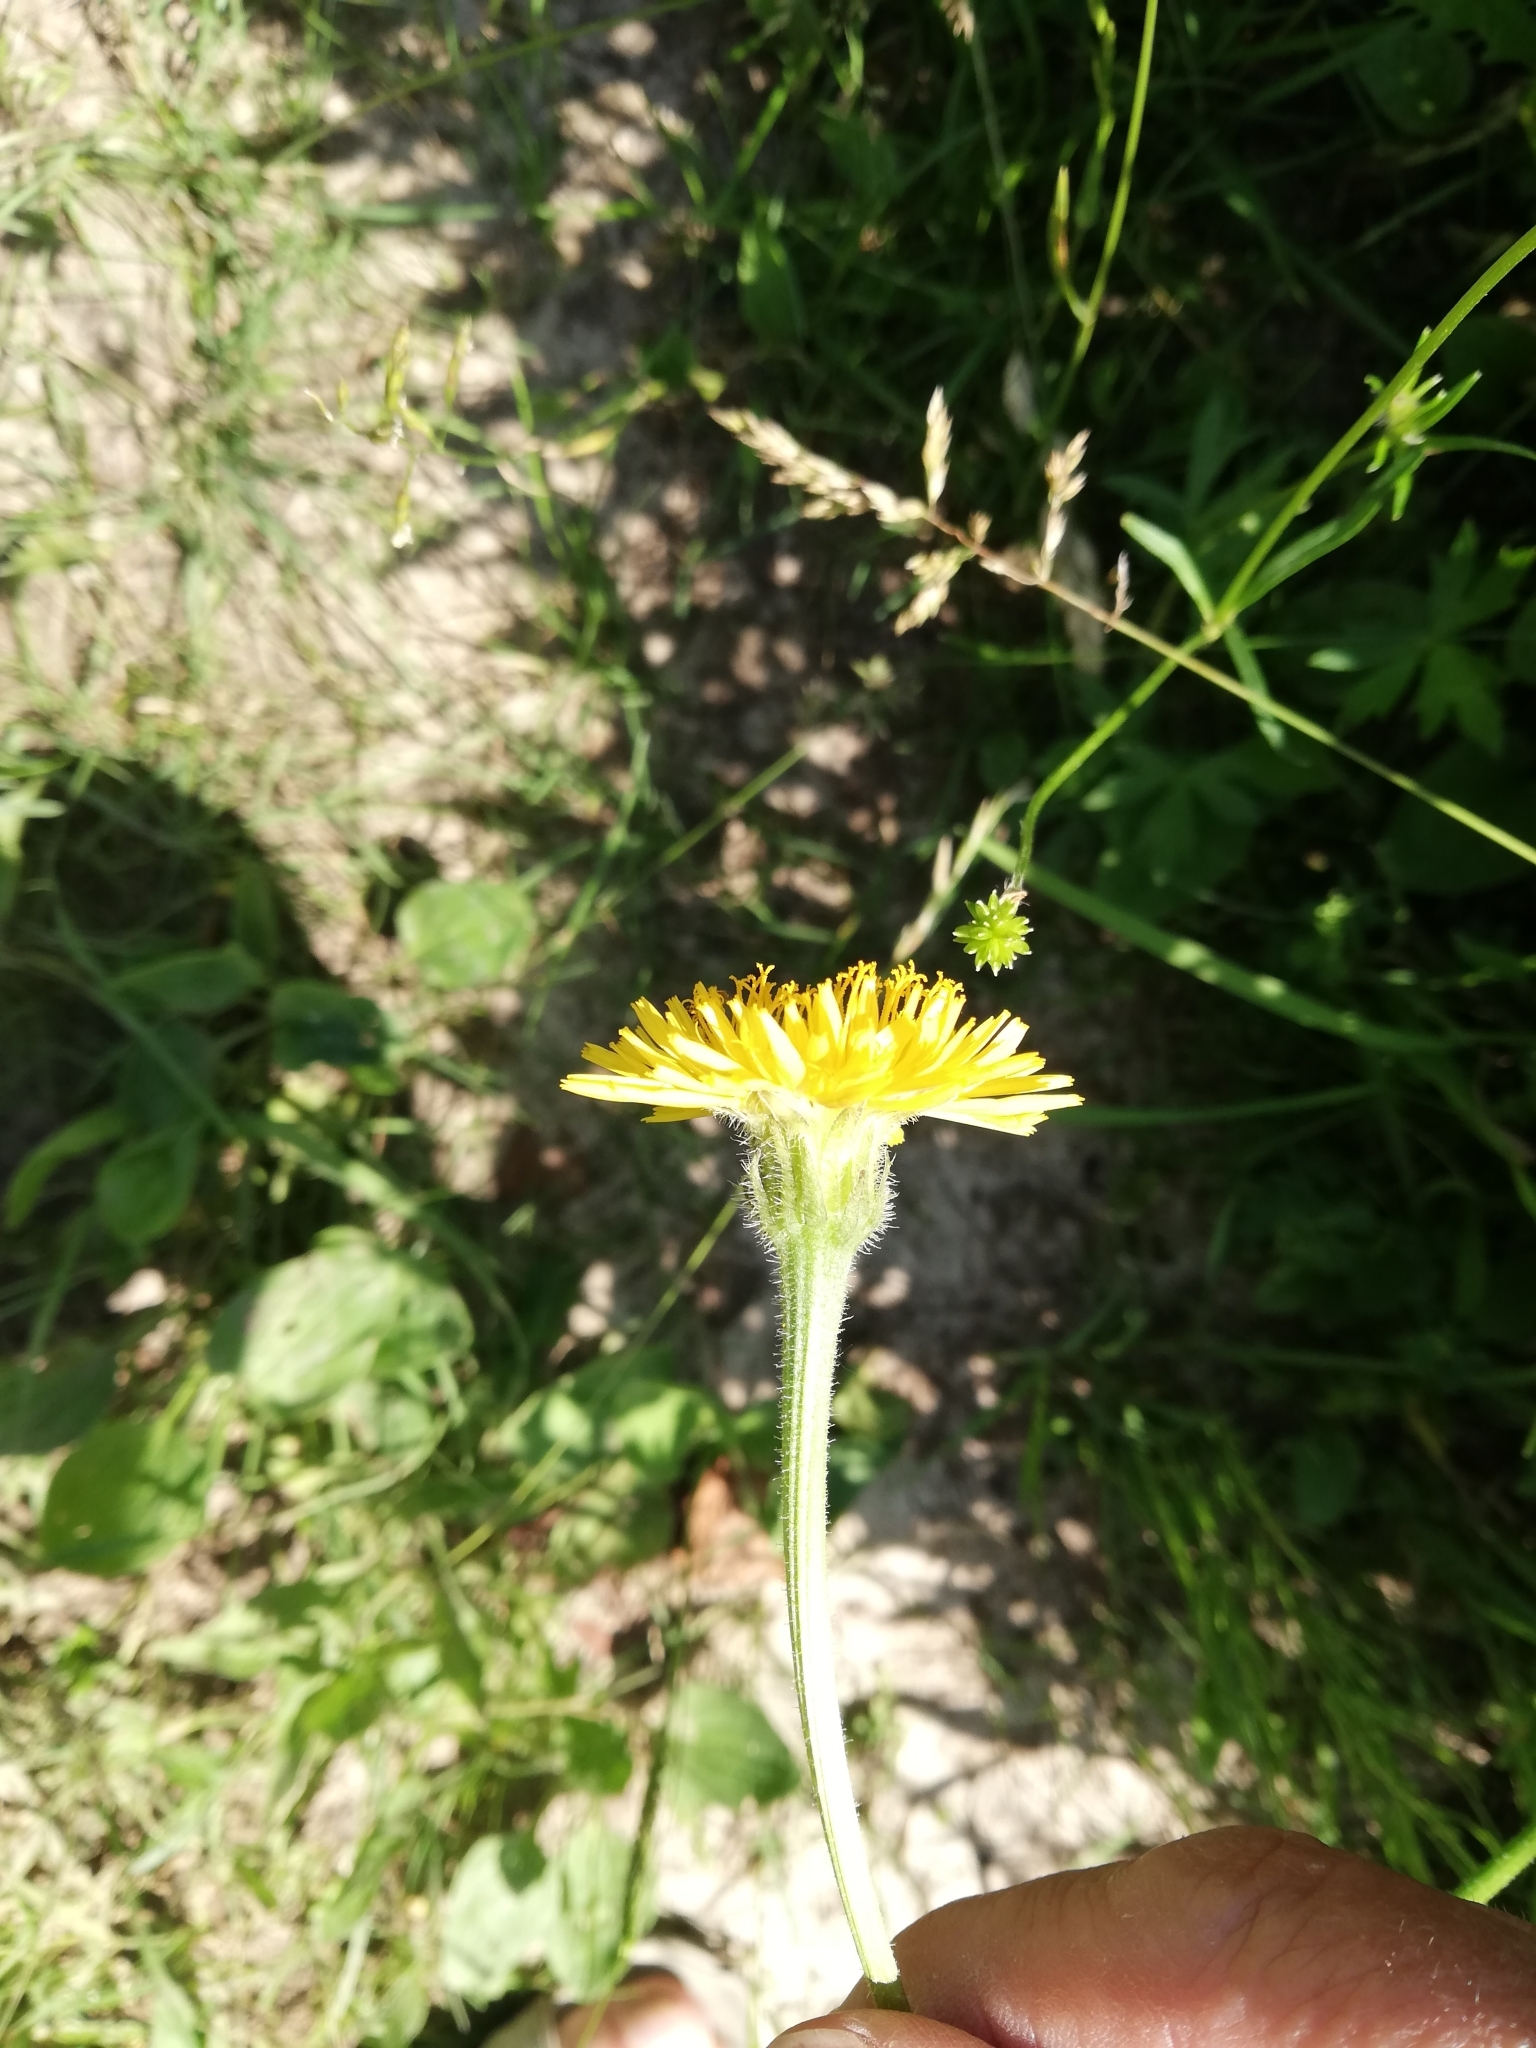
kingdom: Plantae
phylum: Tracheophyta
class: Magnoliopsida
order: Asterales
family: Asteraceae
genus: Leontodon
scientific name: Leontodon hispidus
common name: Rough hawkbit
